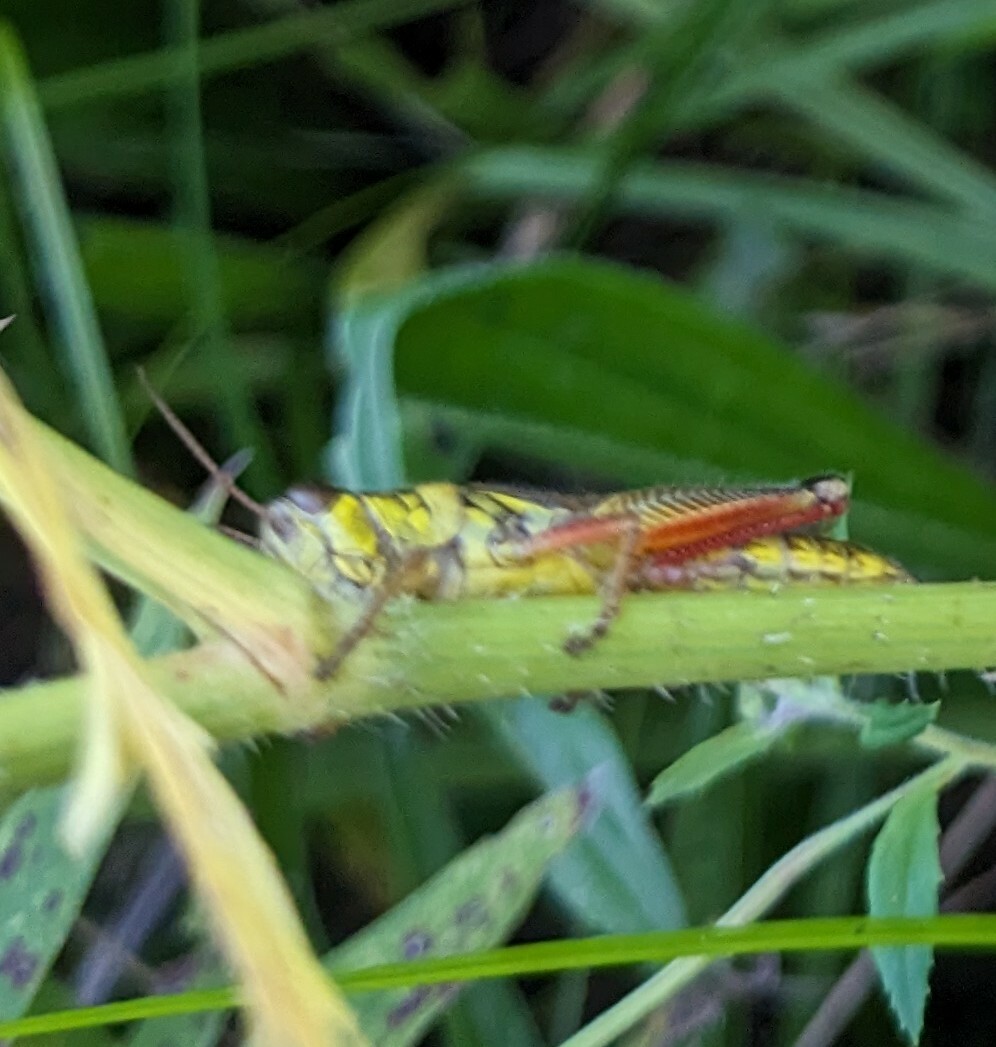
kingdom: Animalia
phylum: Arthropoda
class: Insecta
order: Orthoptera
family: Acrididae
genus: Melanoplus
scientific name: Melanoplus femurrubrum
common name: Red-legged grasshopper
